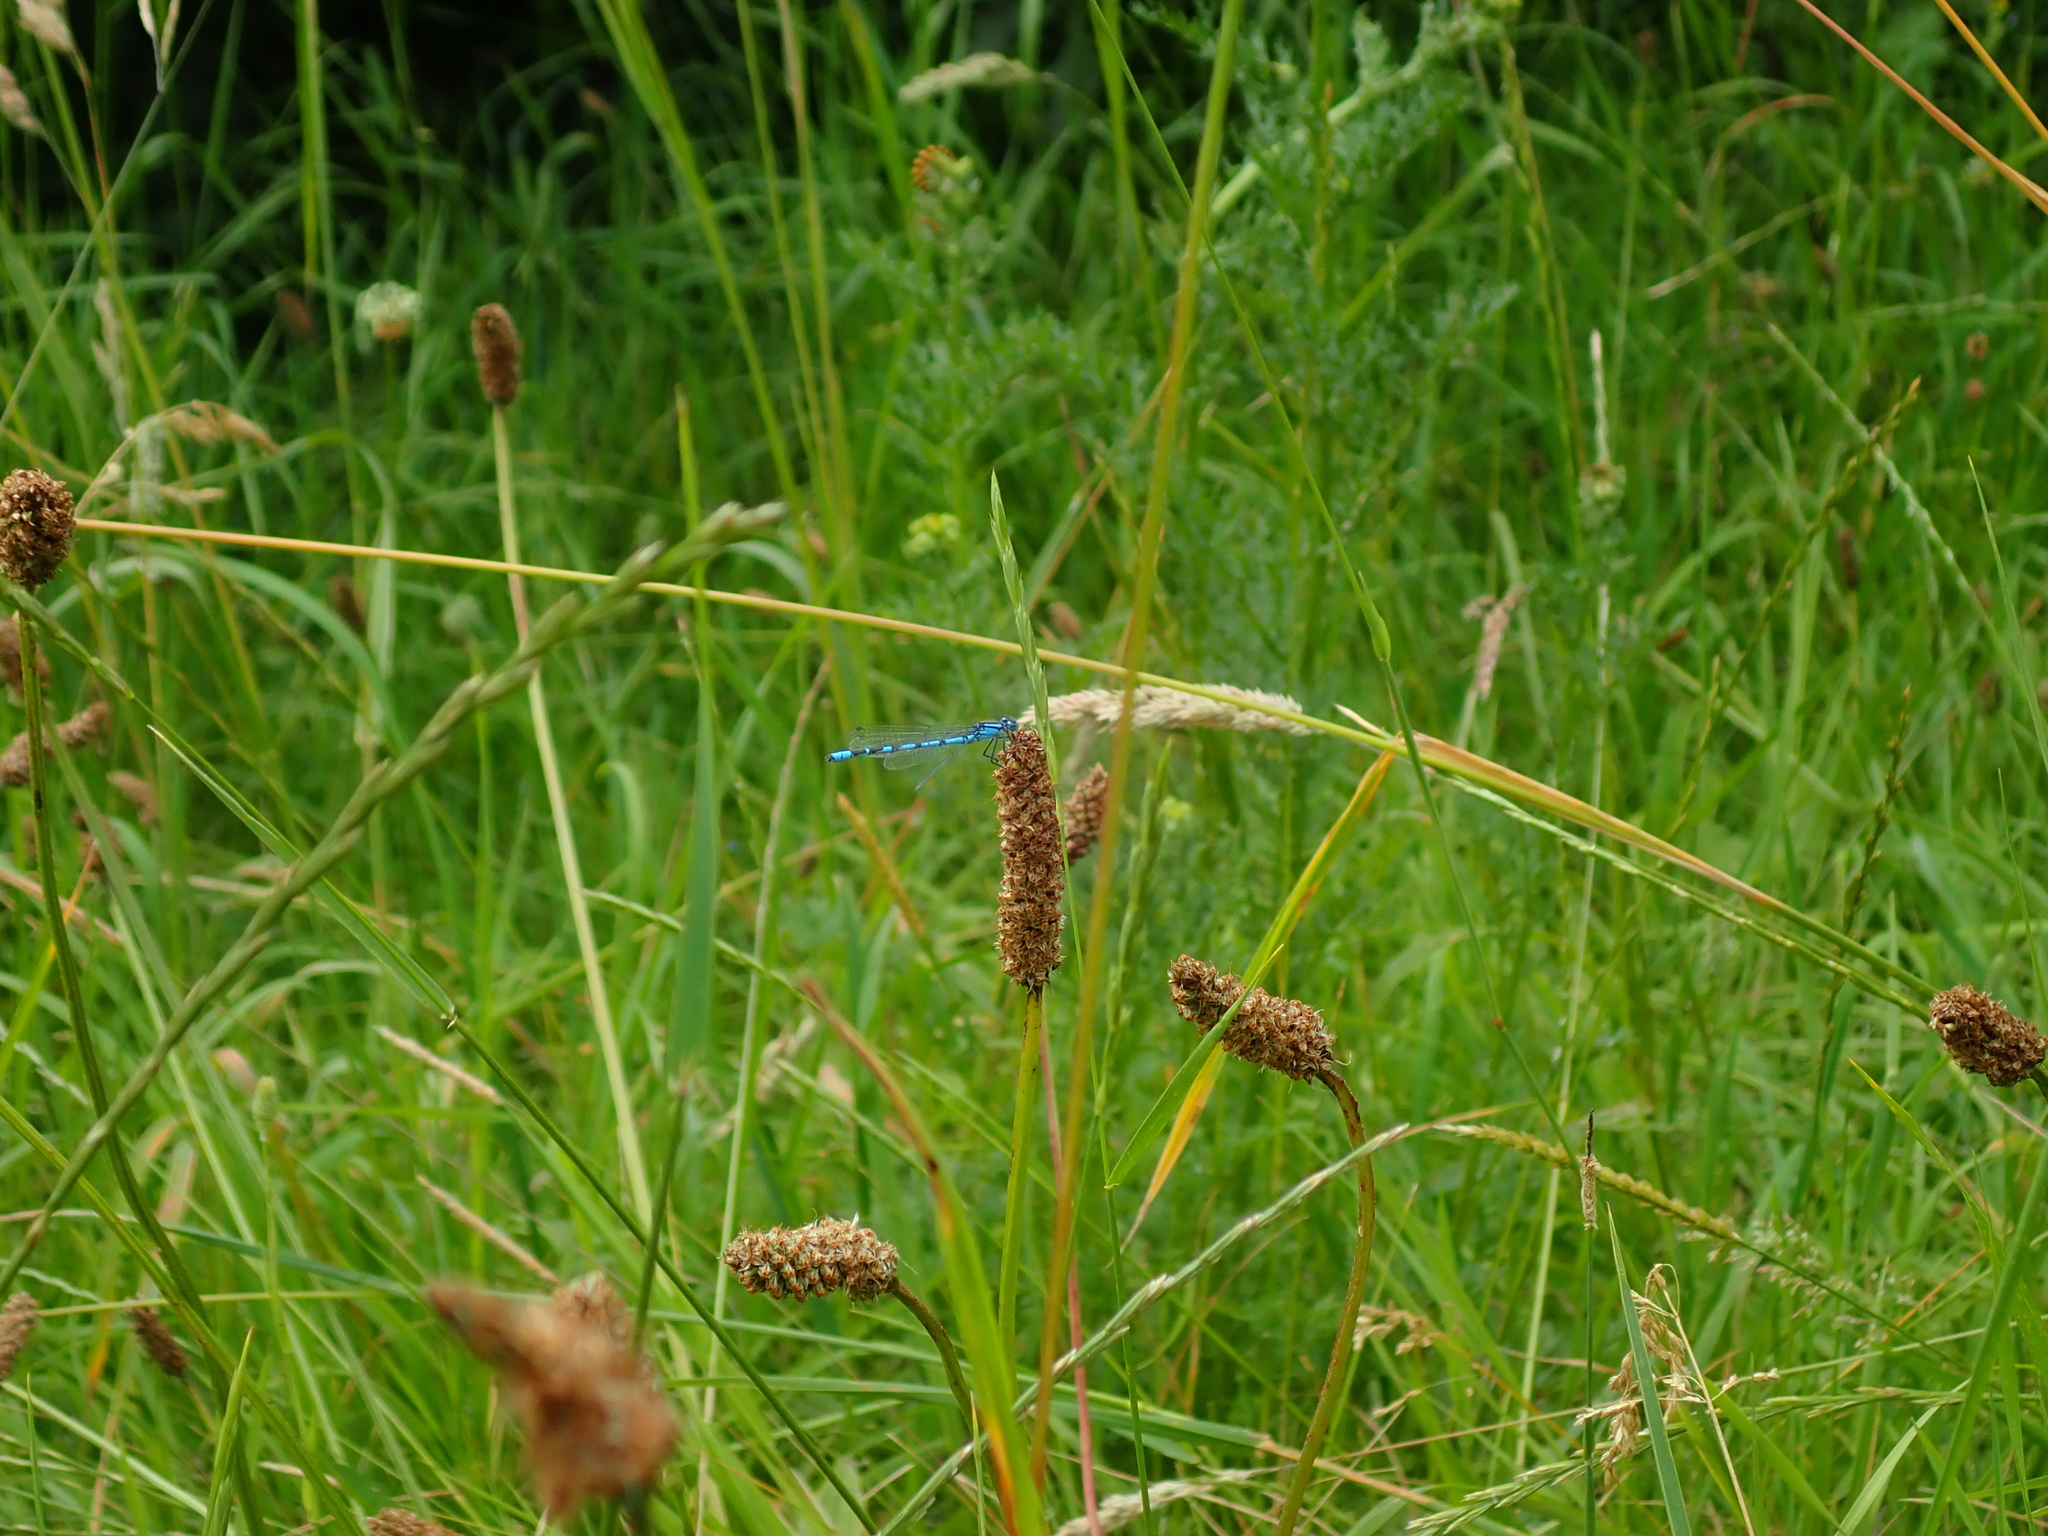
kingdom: Animalia
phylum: Arthropoda
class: Insecta
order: Odonata
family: Coenagrionidae
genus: Enallagma
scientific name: Enallagma cyathigerum
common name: Common blue damselfly
